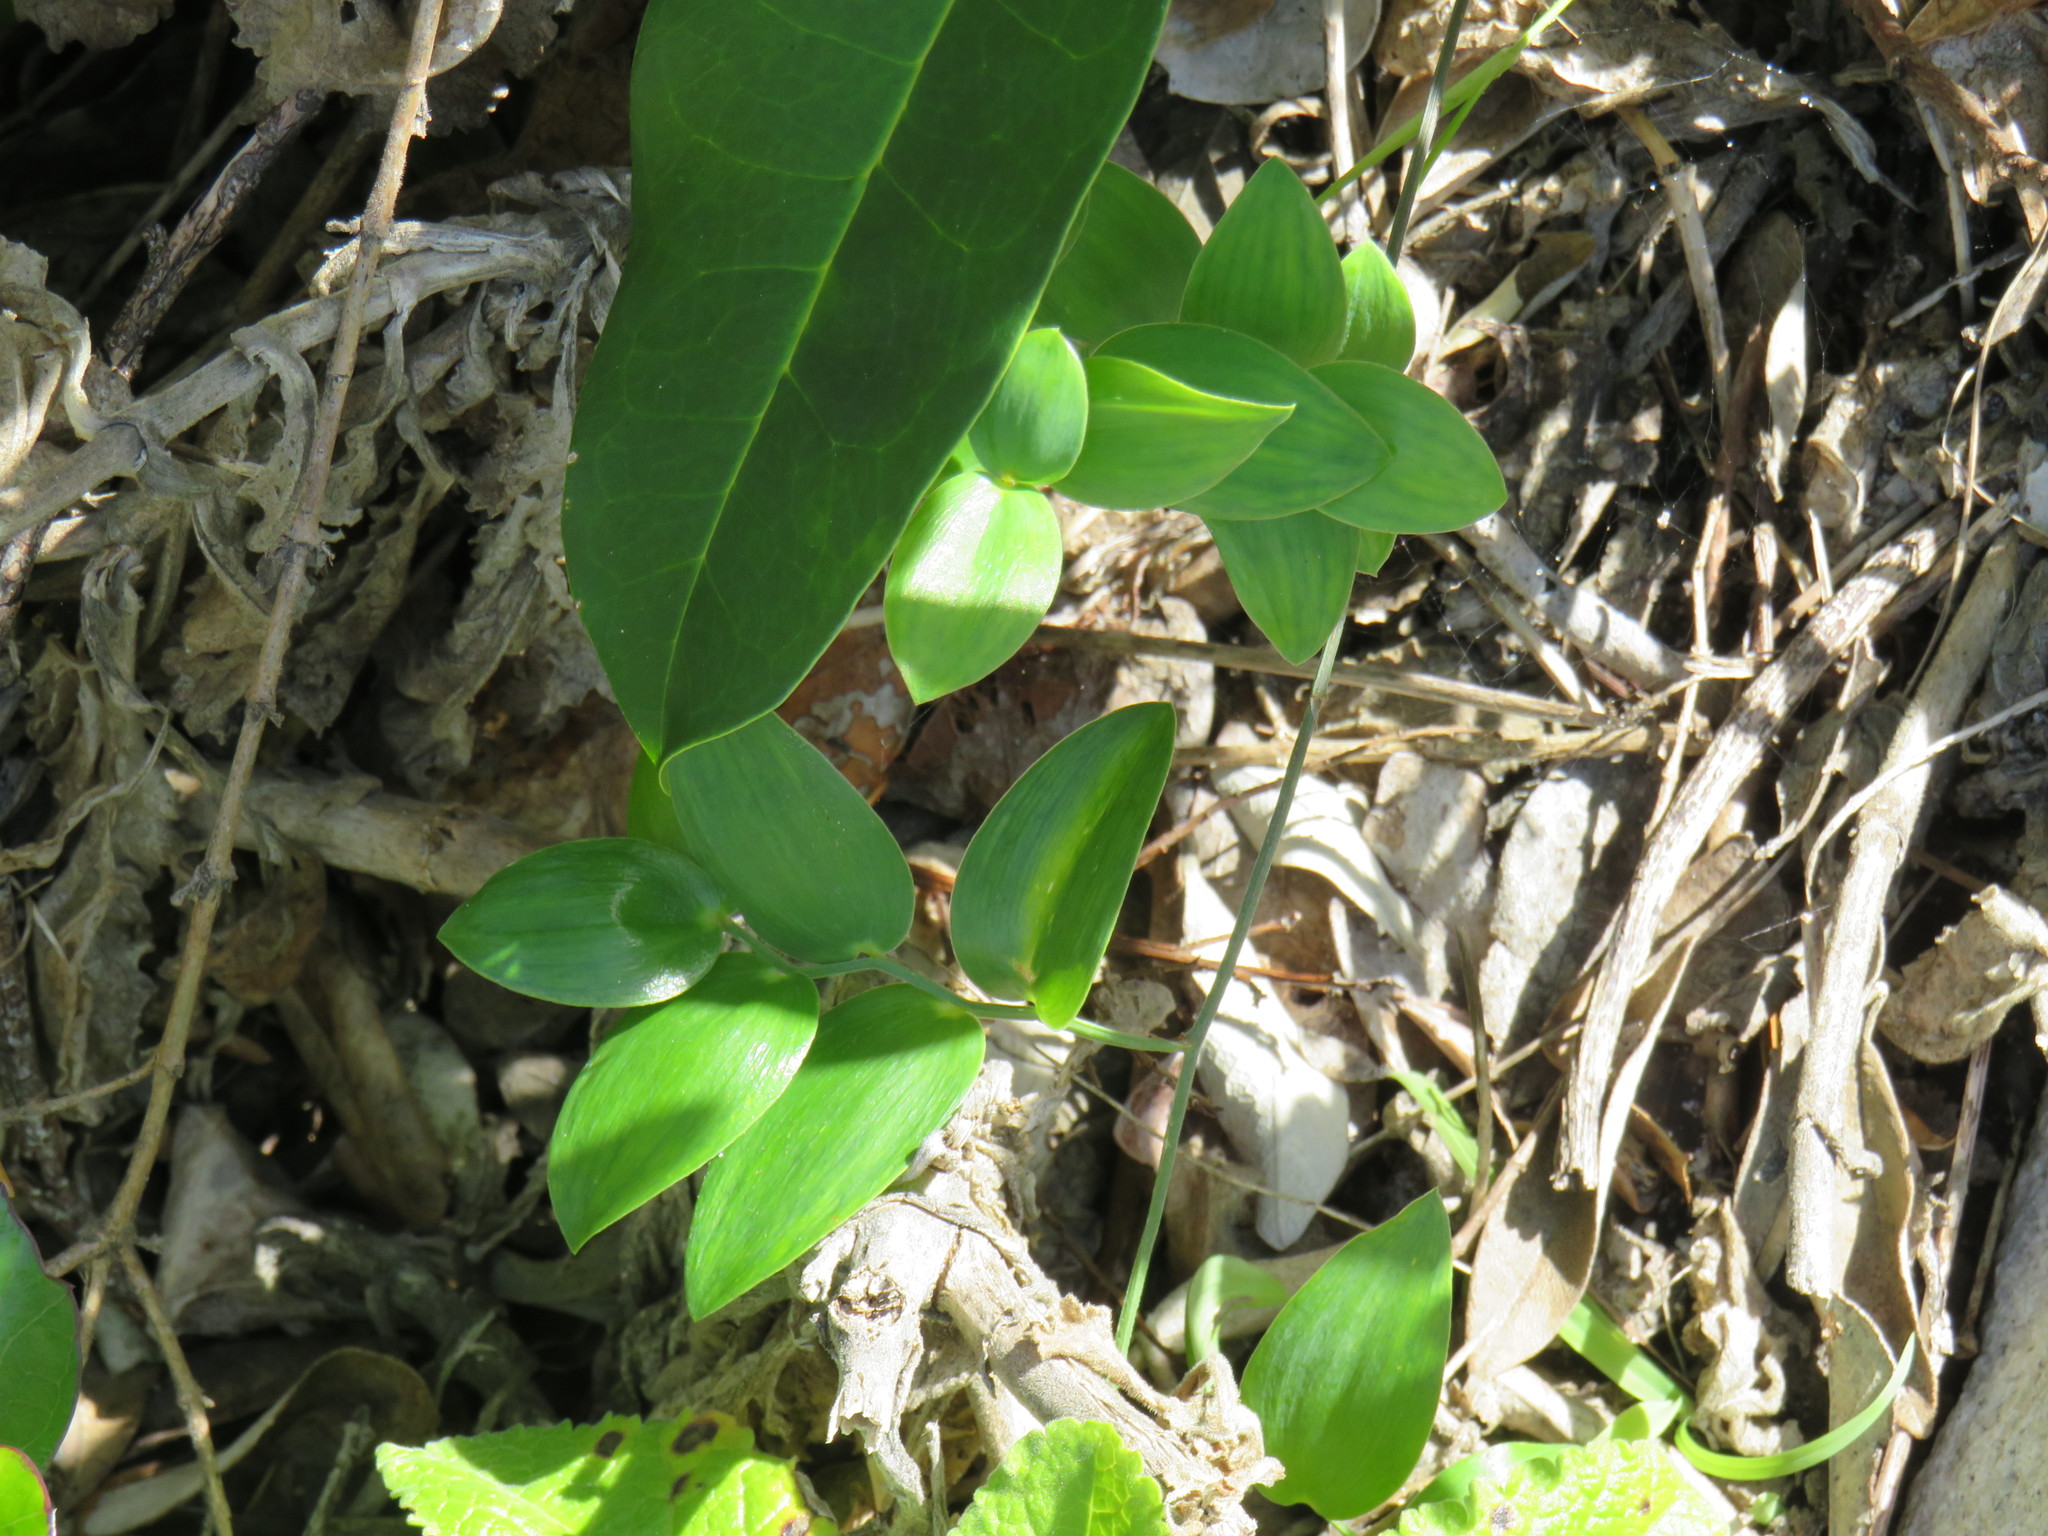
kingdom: Plantae
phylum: Tracheophyta
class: Liliopsida
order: Asparagales
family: Asparagaceae
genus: Asparagus
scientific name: Asparagus ovatus
